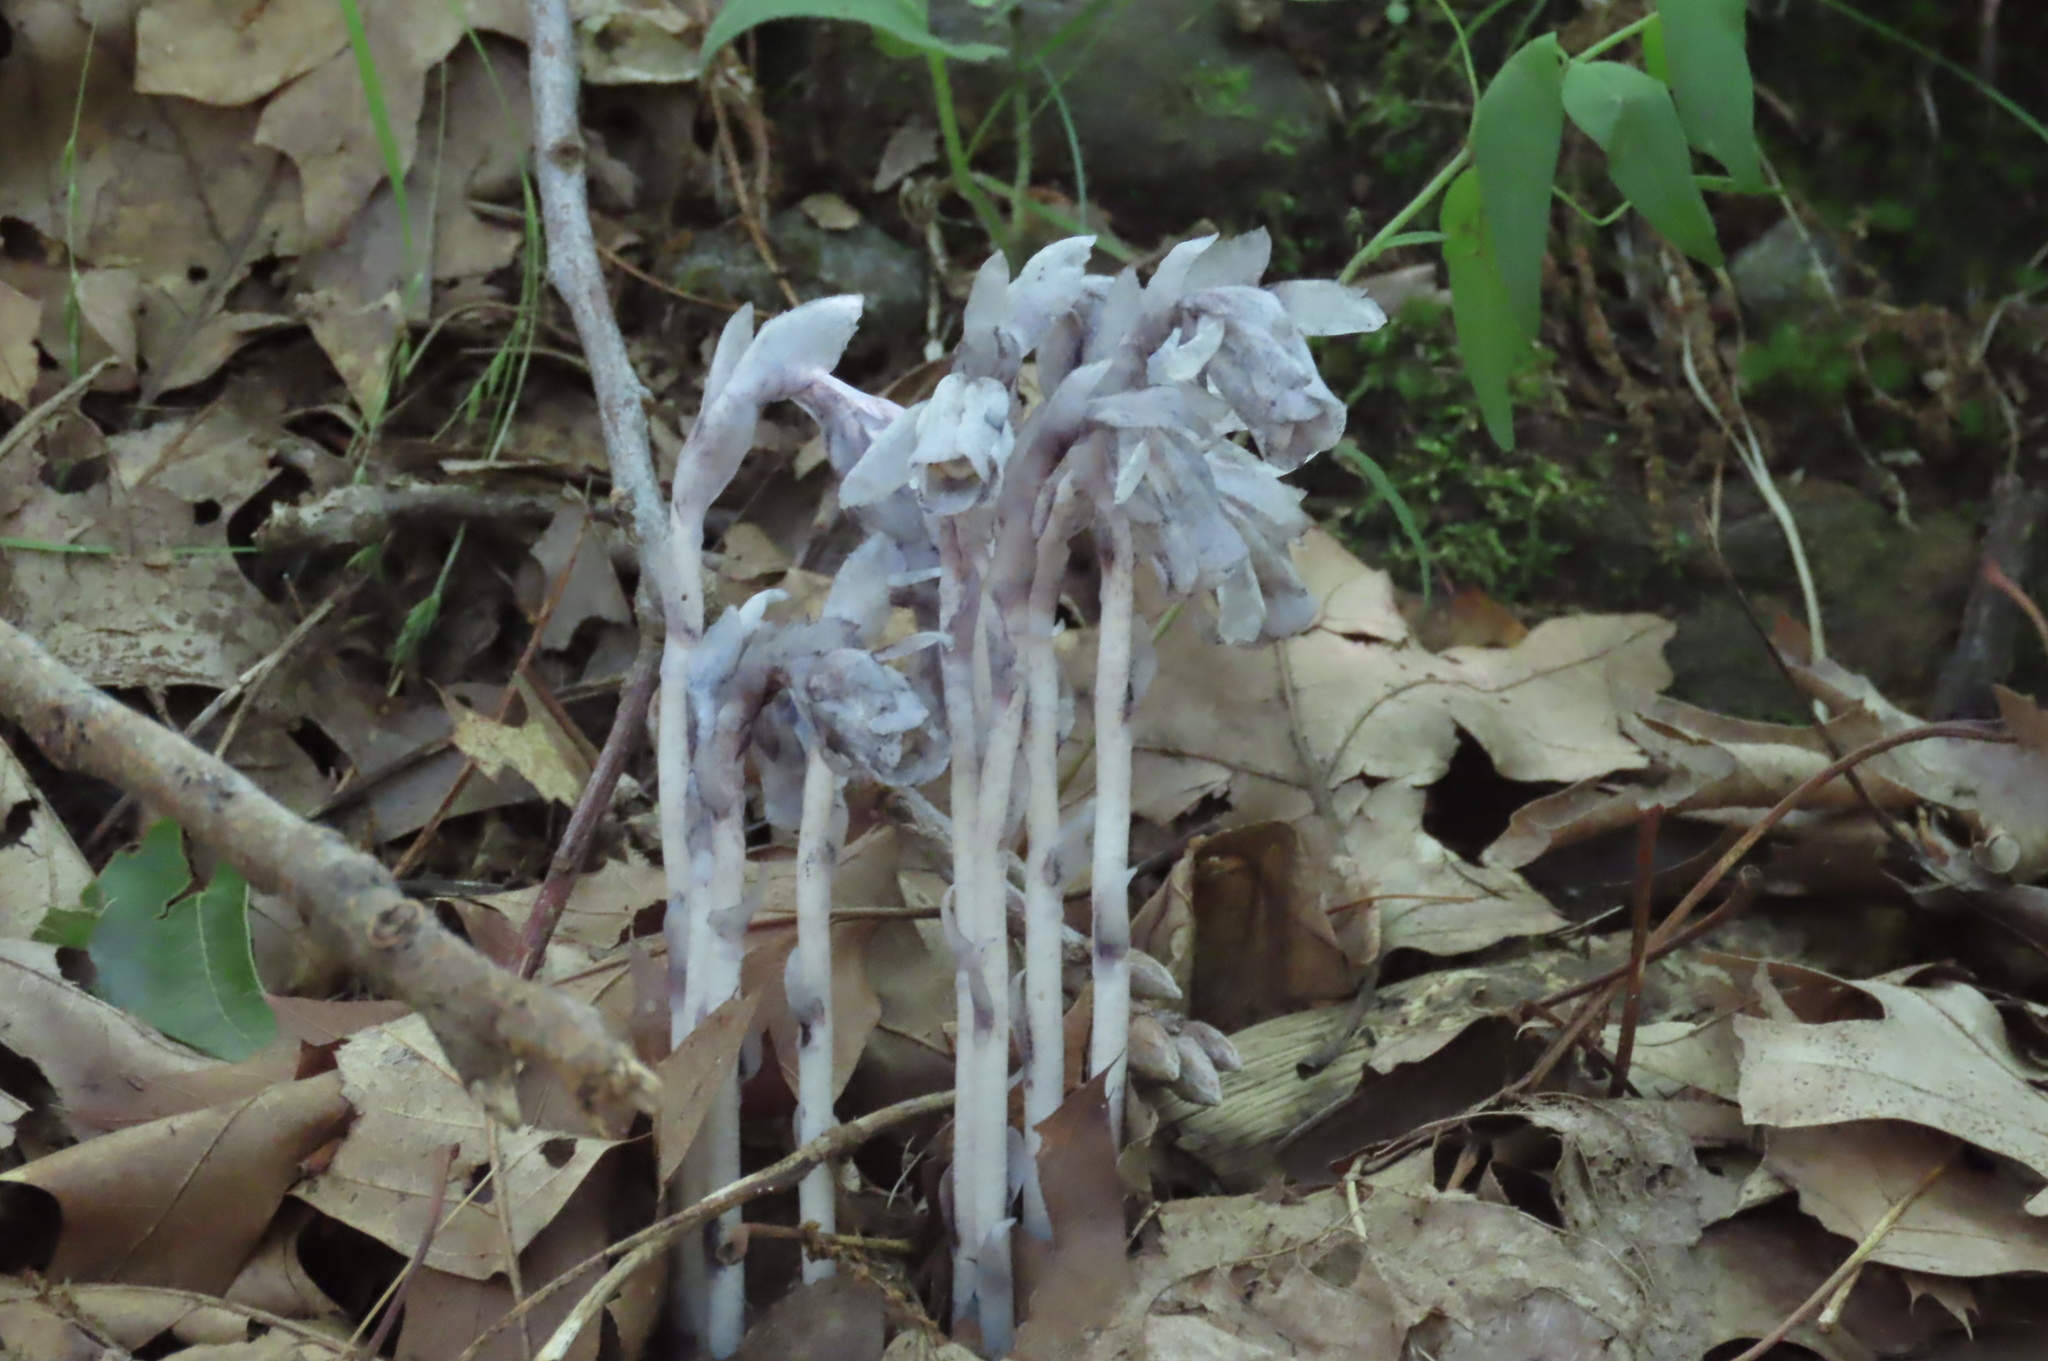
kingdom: Plantae
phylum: Tracheophyta
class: Magnoliopsida
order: Ericales
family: Ericaceae
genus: Monotropa
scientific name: Monotropa uniflora
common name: Convulsion root
